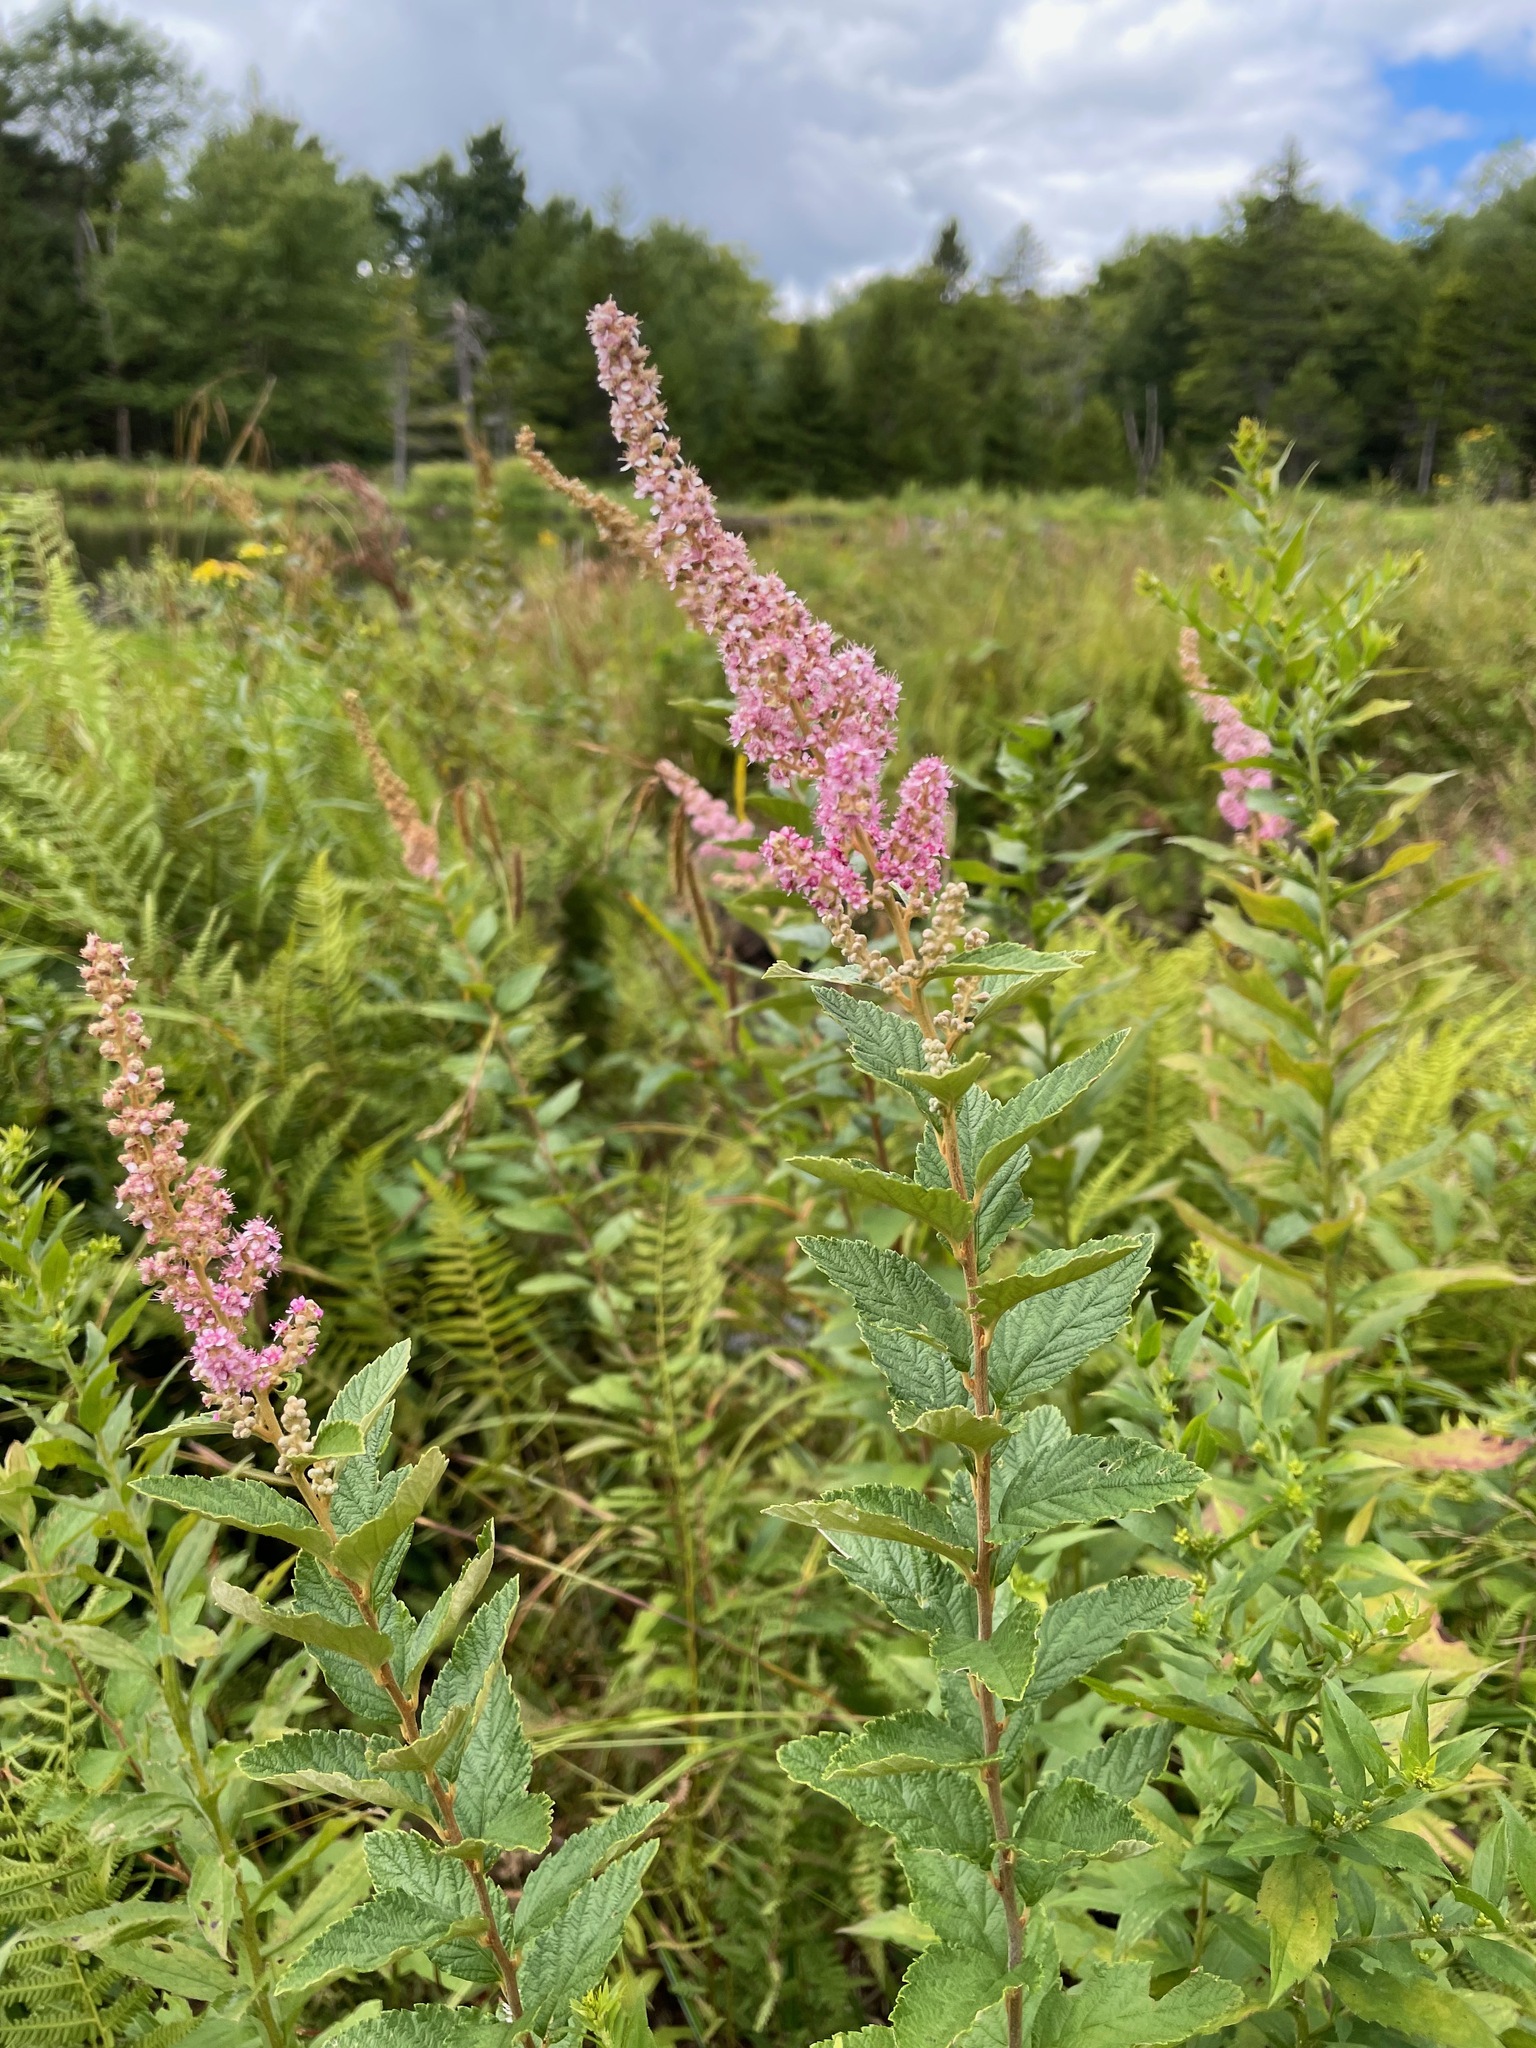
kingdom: Plantae
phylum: Tracheophyta
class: Magnoliopsida
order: Rosales
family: Rosaceae
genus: Spiraea
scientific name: Spiraea tomentosa
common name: Hardhack
